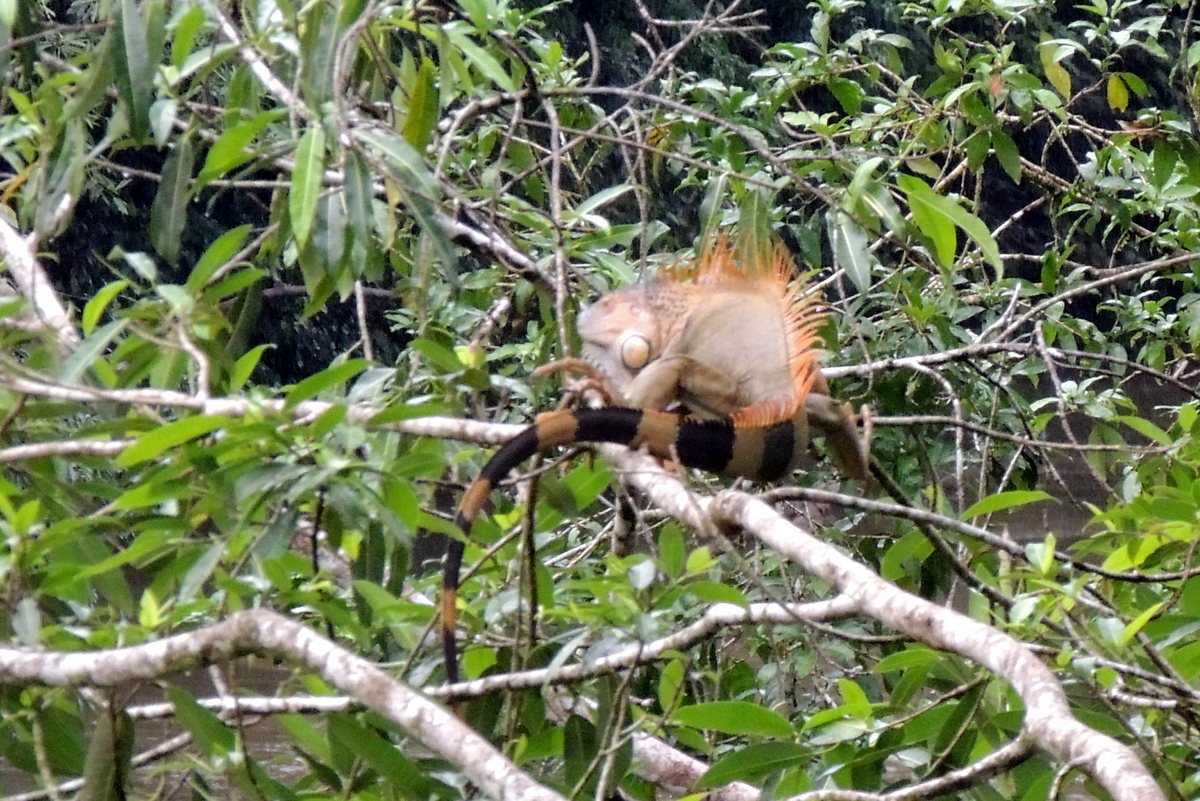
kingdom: Animalia
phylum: Chordata
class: Squamata
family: Iguanidae
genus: Iguana
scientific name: Iguana iguana
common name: Green iguana
